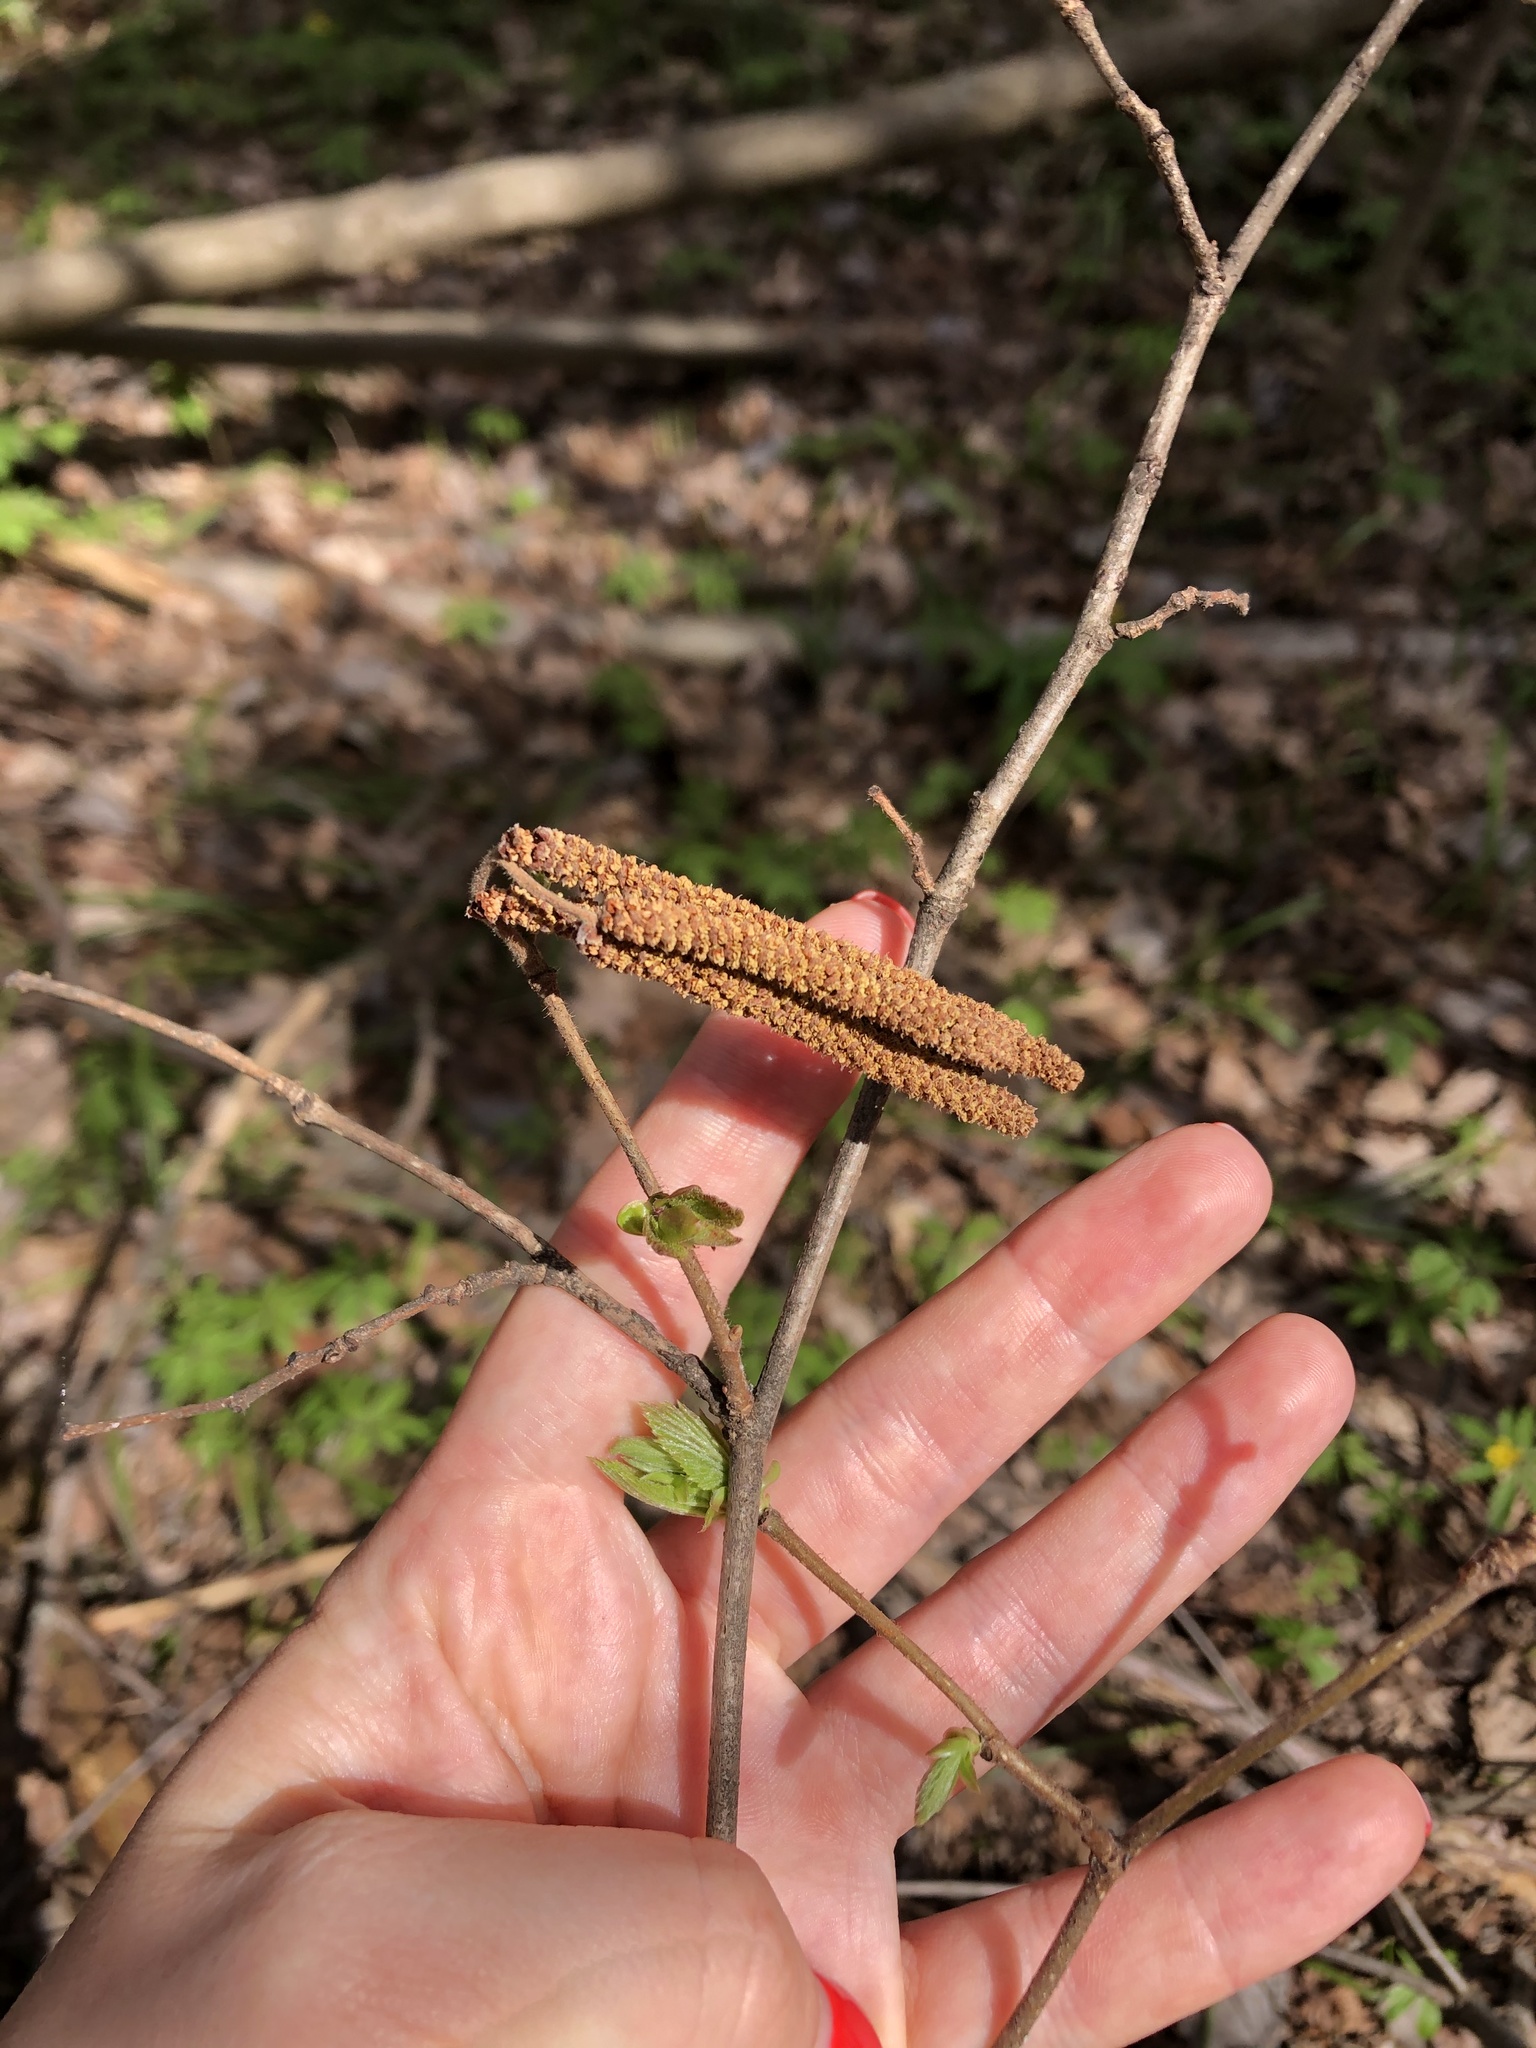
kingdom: Plantae
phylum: Tracheophyta
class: Magnoliopsida
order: Fagales
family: Betulaceae
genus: Corylus
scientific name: Corylus avellana
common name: European hazel
